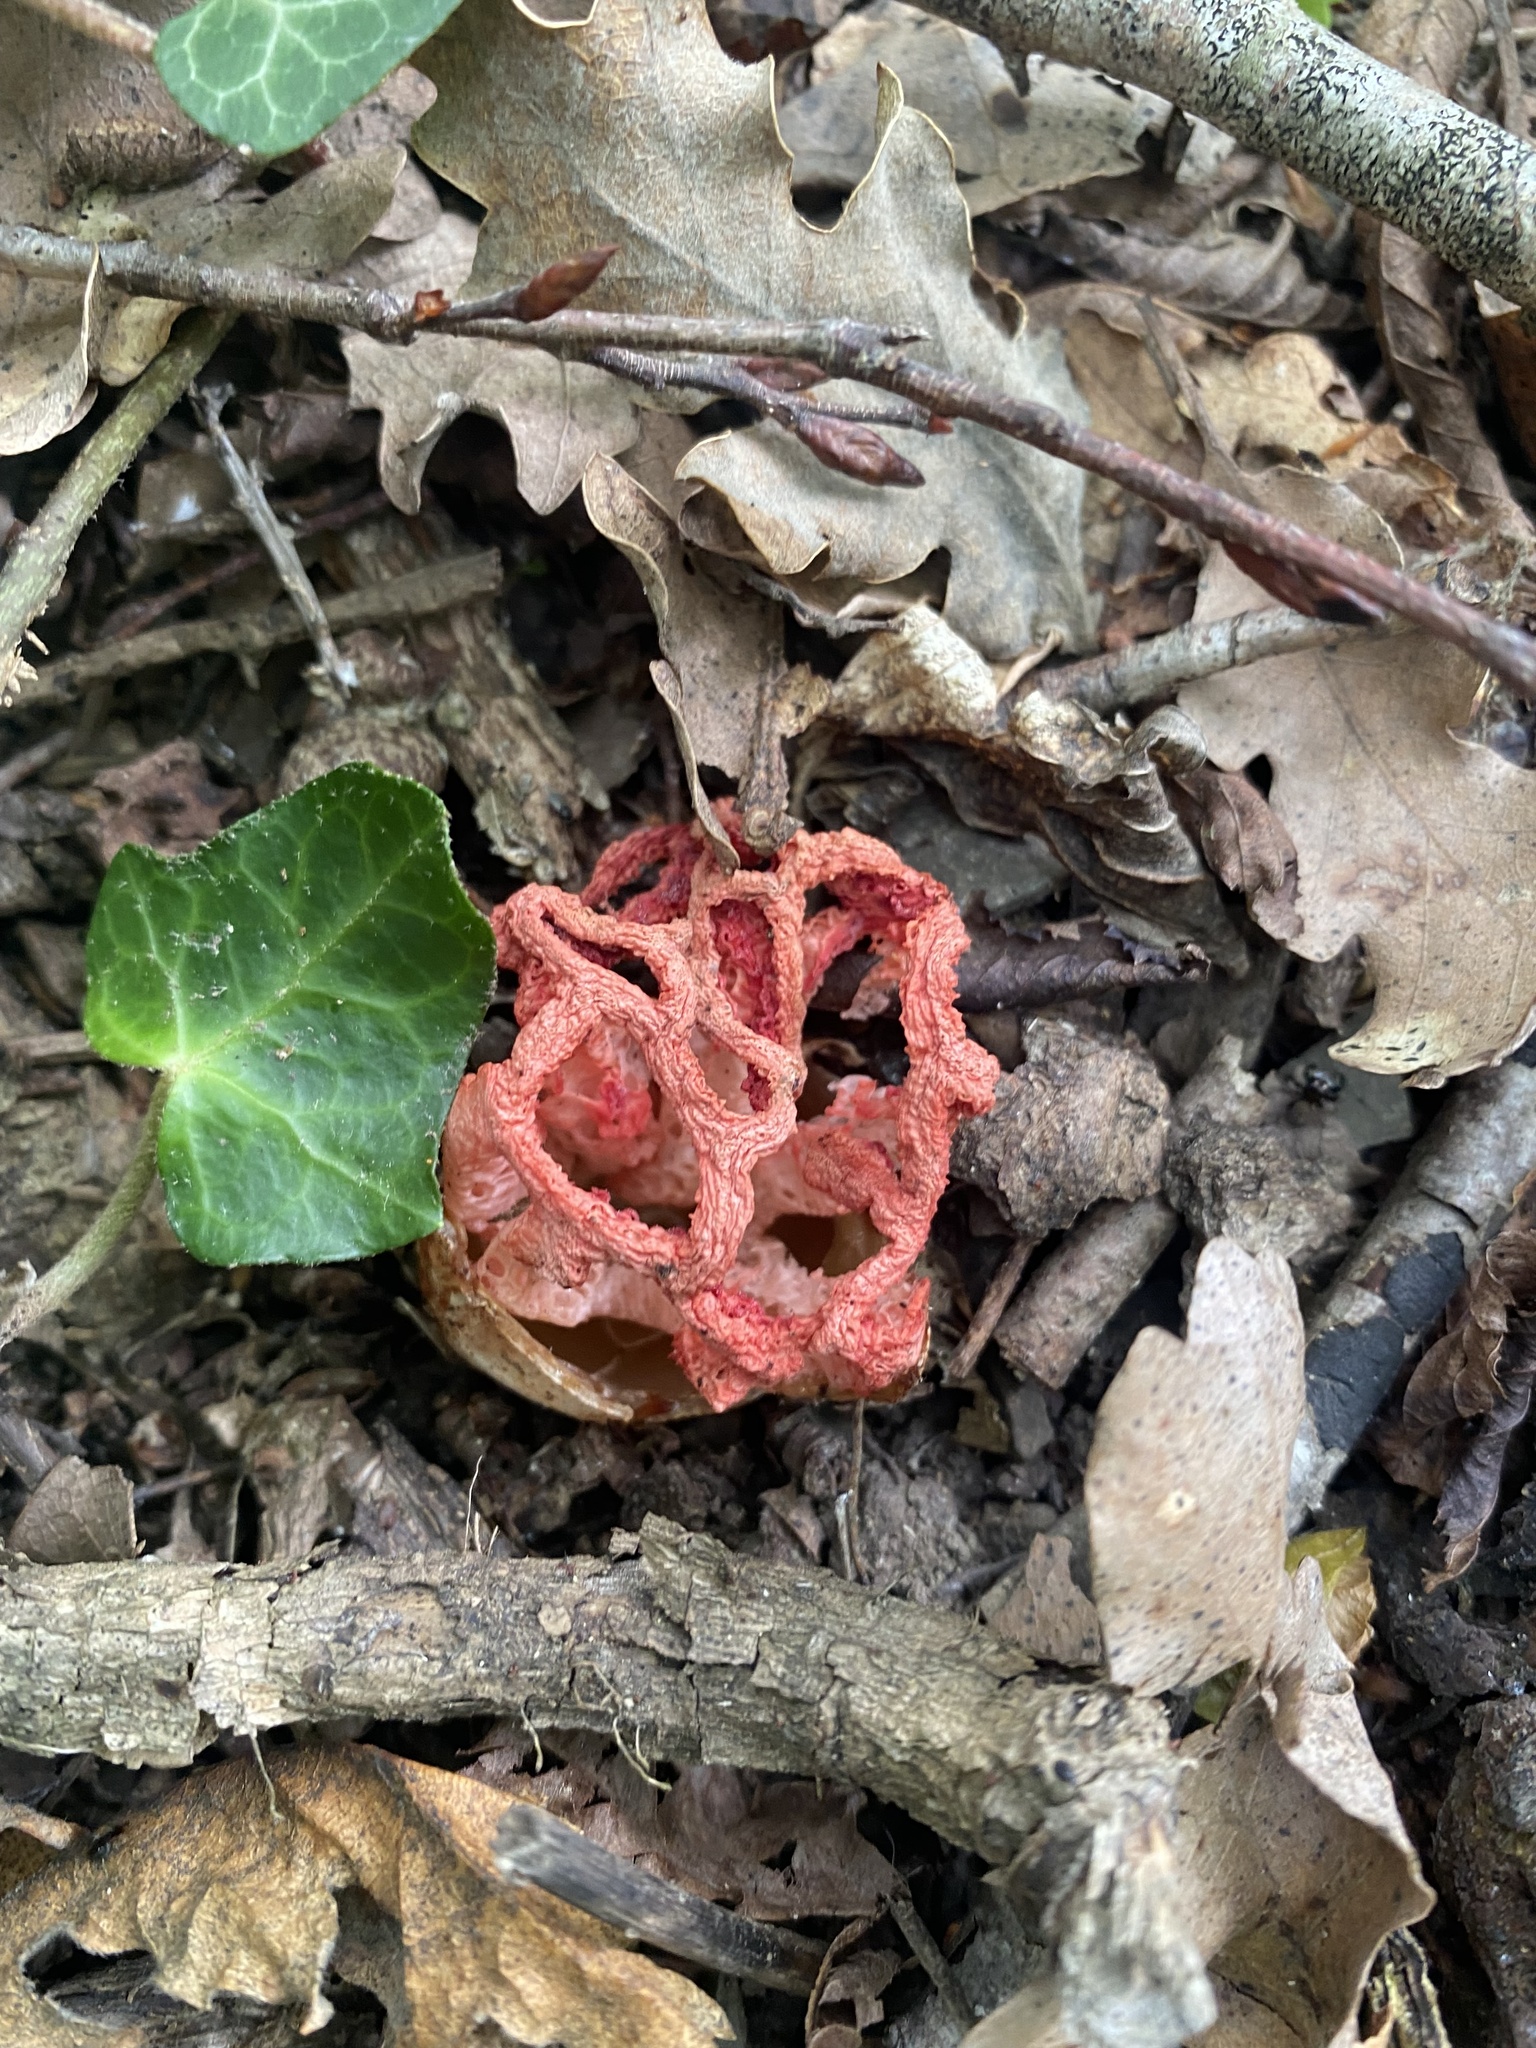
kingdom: Fungi
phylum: Basidiomycota
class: Agaricomycetes
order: Phallales
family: Phallaceae
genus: Clathrus
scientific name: Clathrus ruber
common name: Red cage
